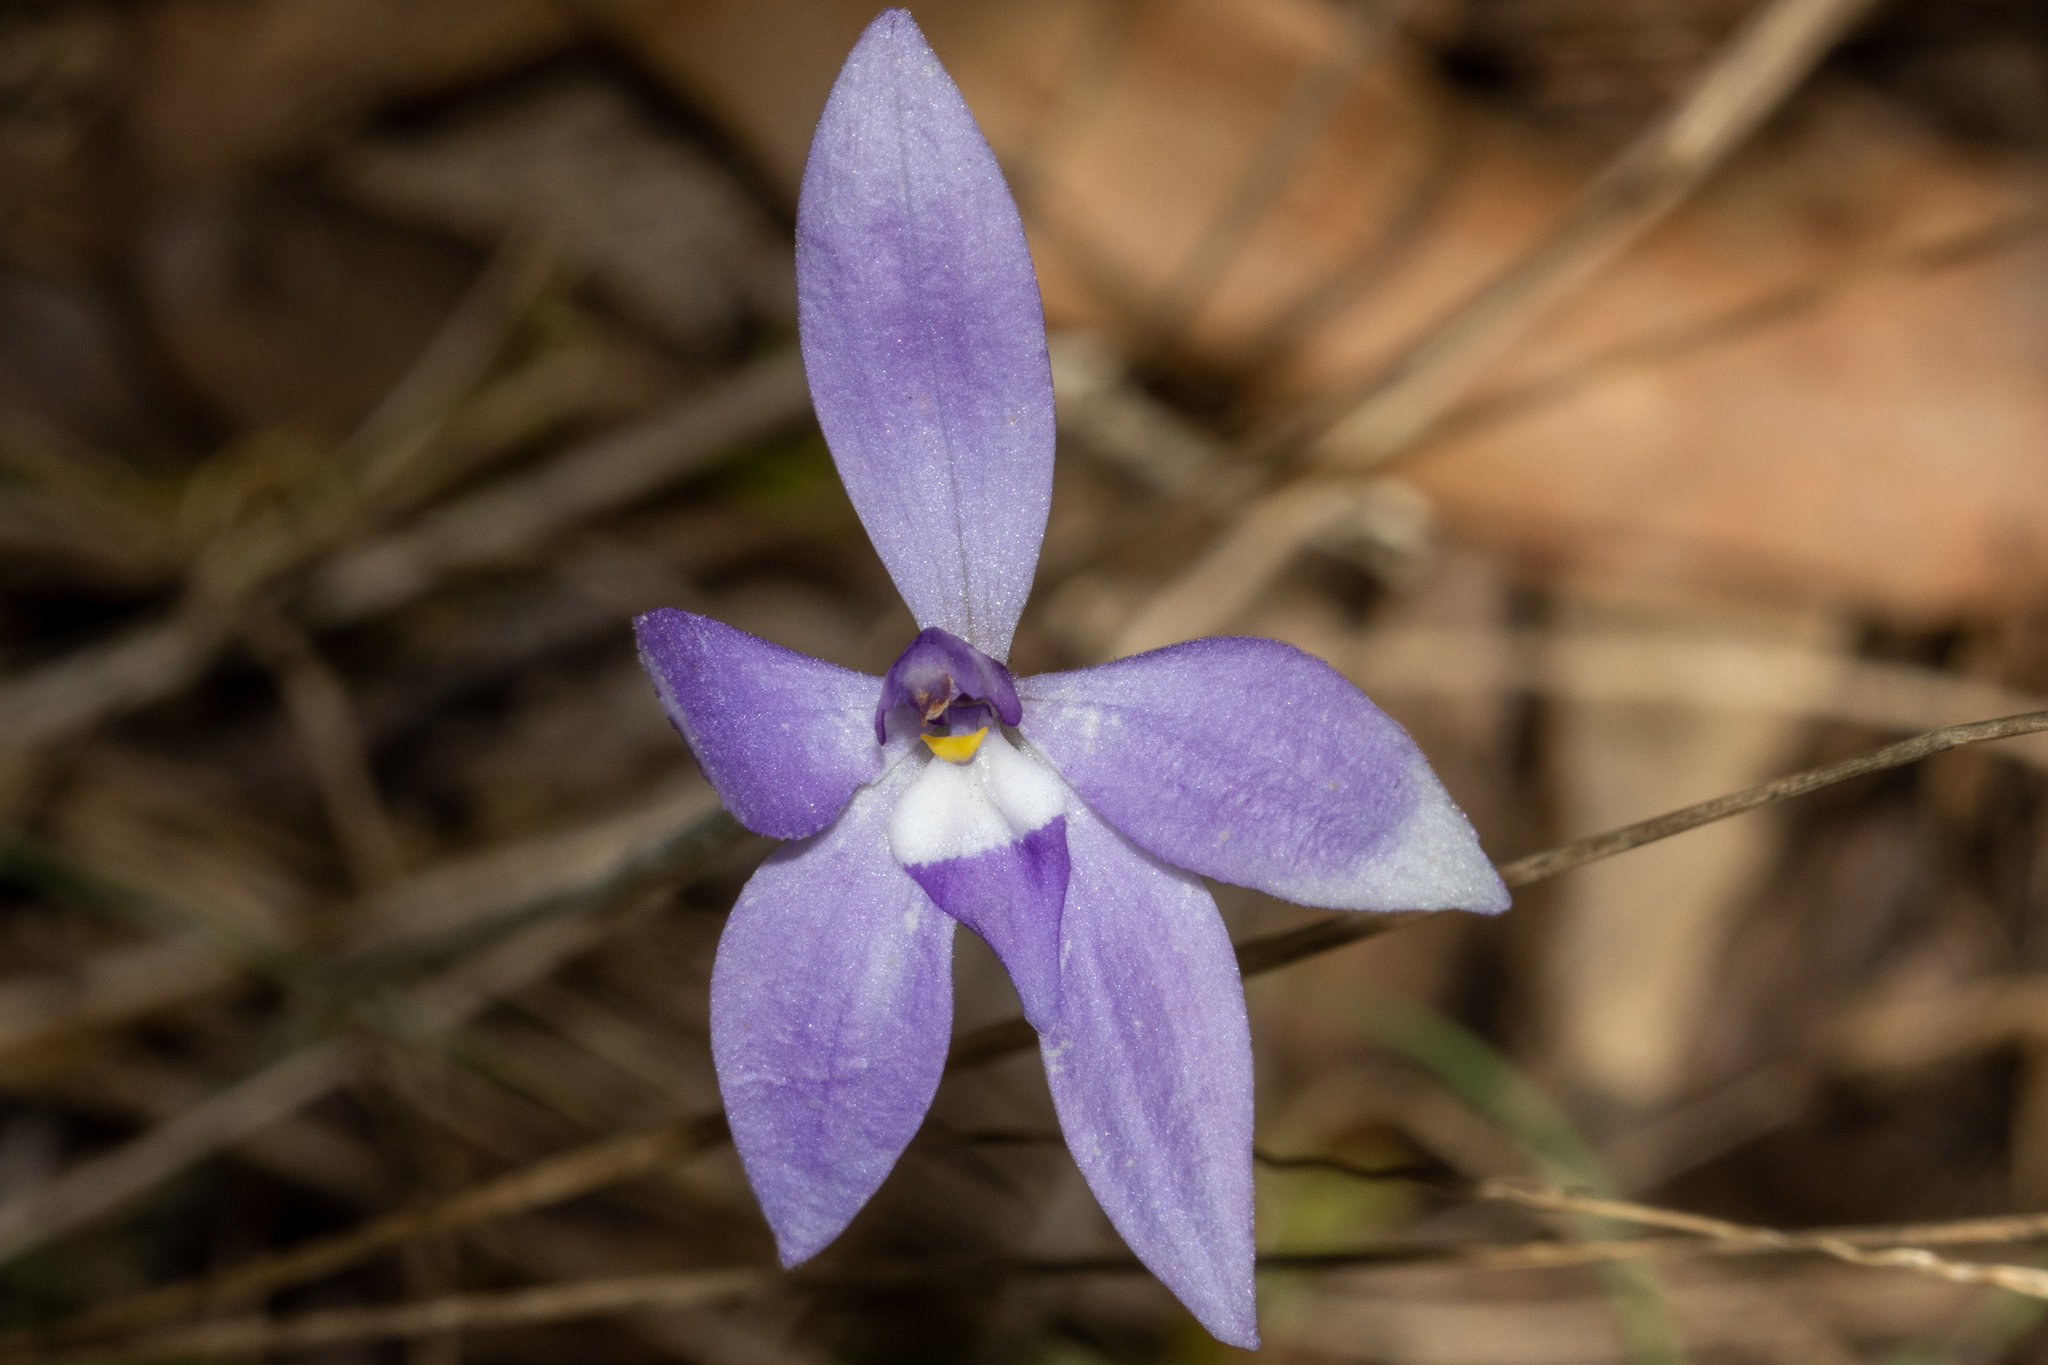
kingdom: Plantae
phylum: Tracheophyta
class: Liliopsida
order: Asparagales
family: Orchidaceae
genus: Caladenia
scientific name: Caladenia major
